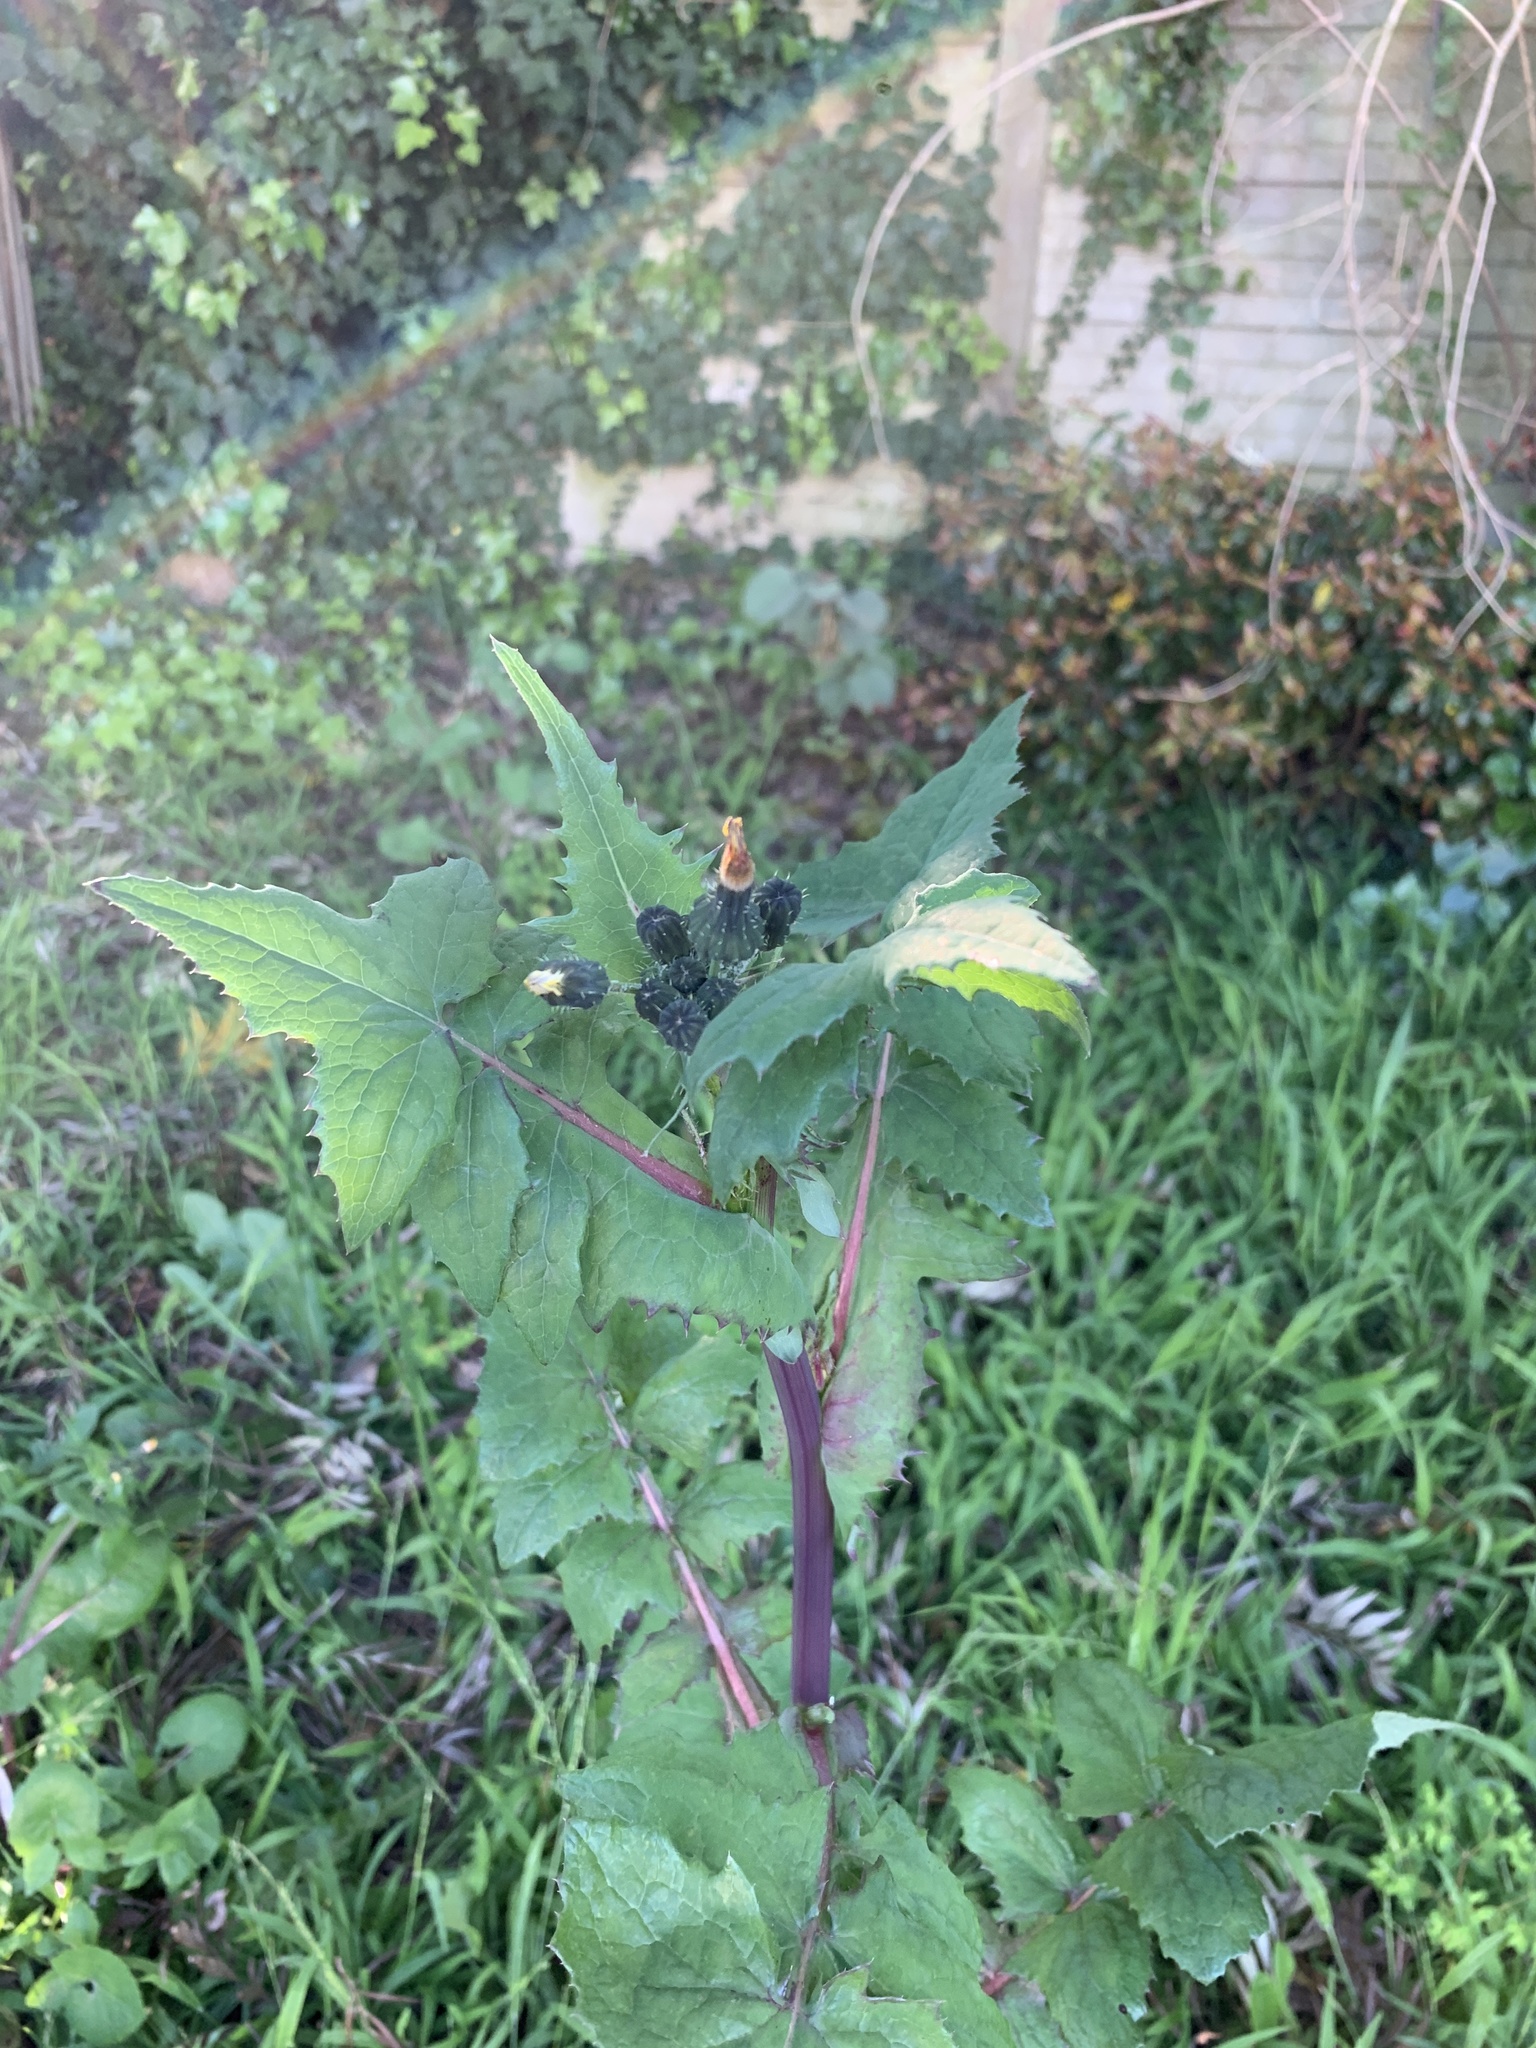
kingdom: Plantae
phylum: Tracheophyta
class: Magnoliopsida
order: Asterales
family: Asteraceae
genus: Sonchus
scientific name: Sonchus oleraceus
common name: Common sowthistle
